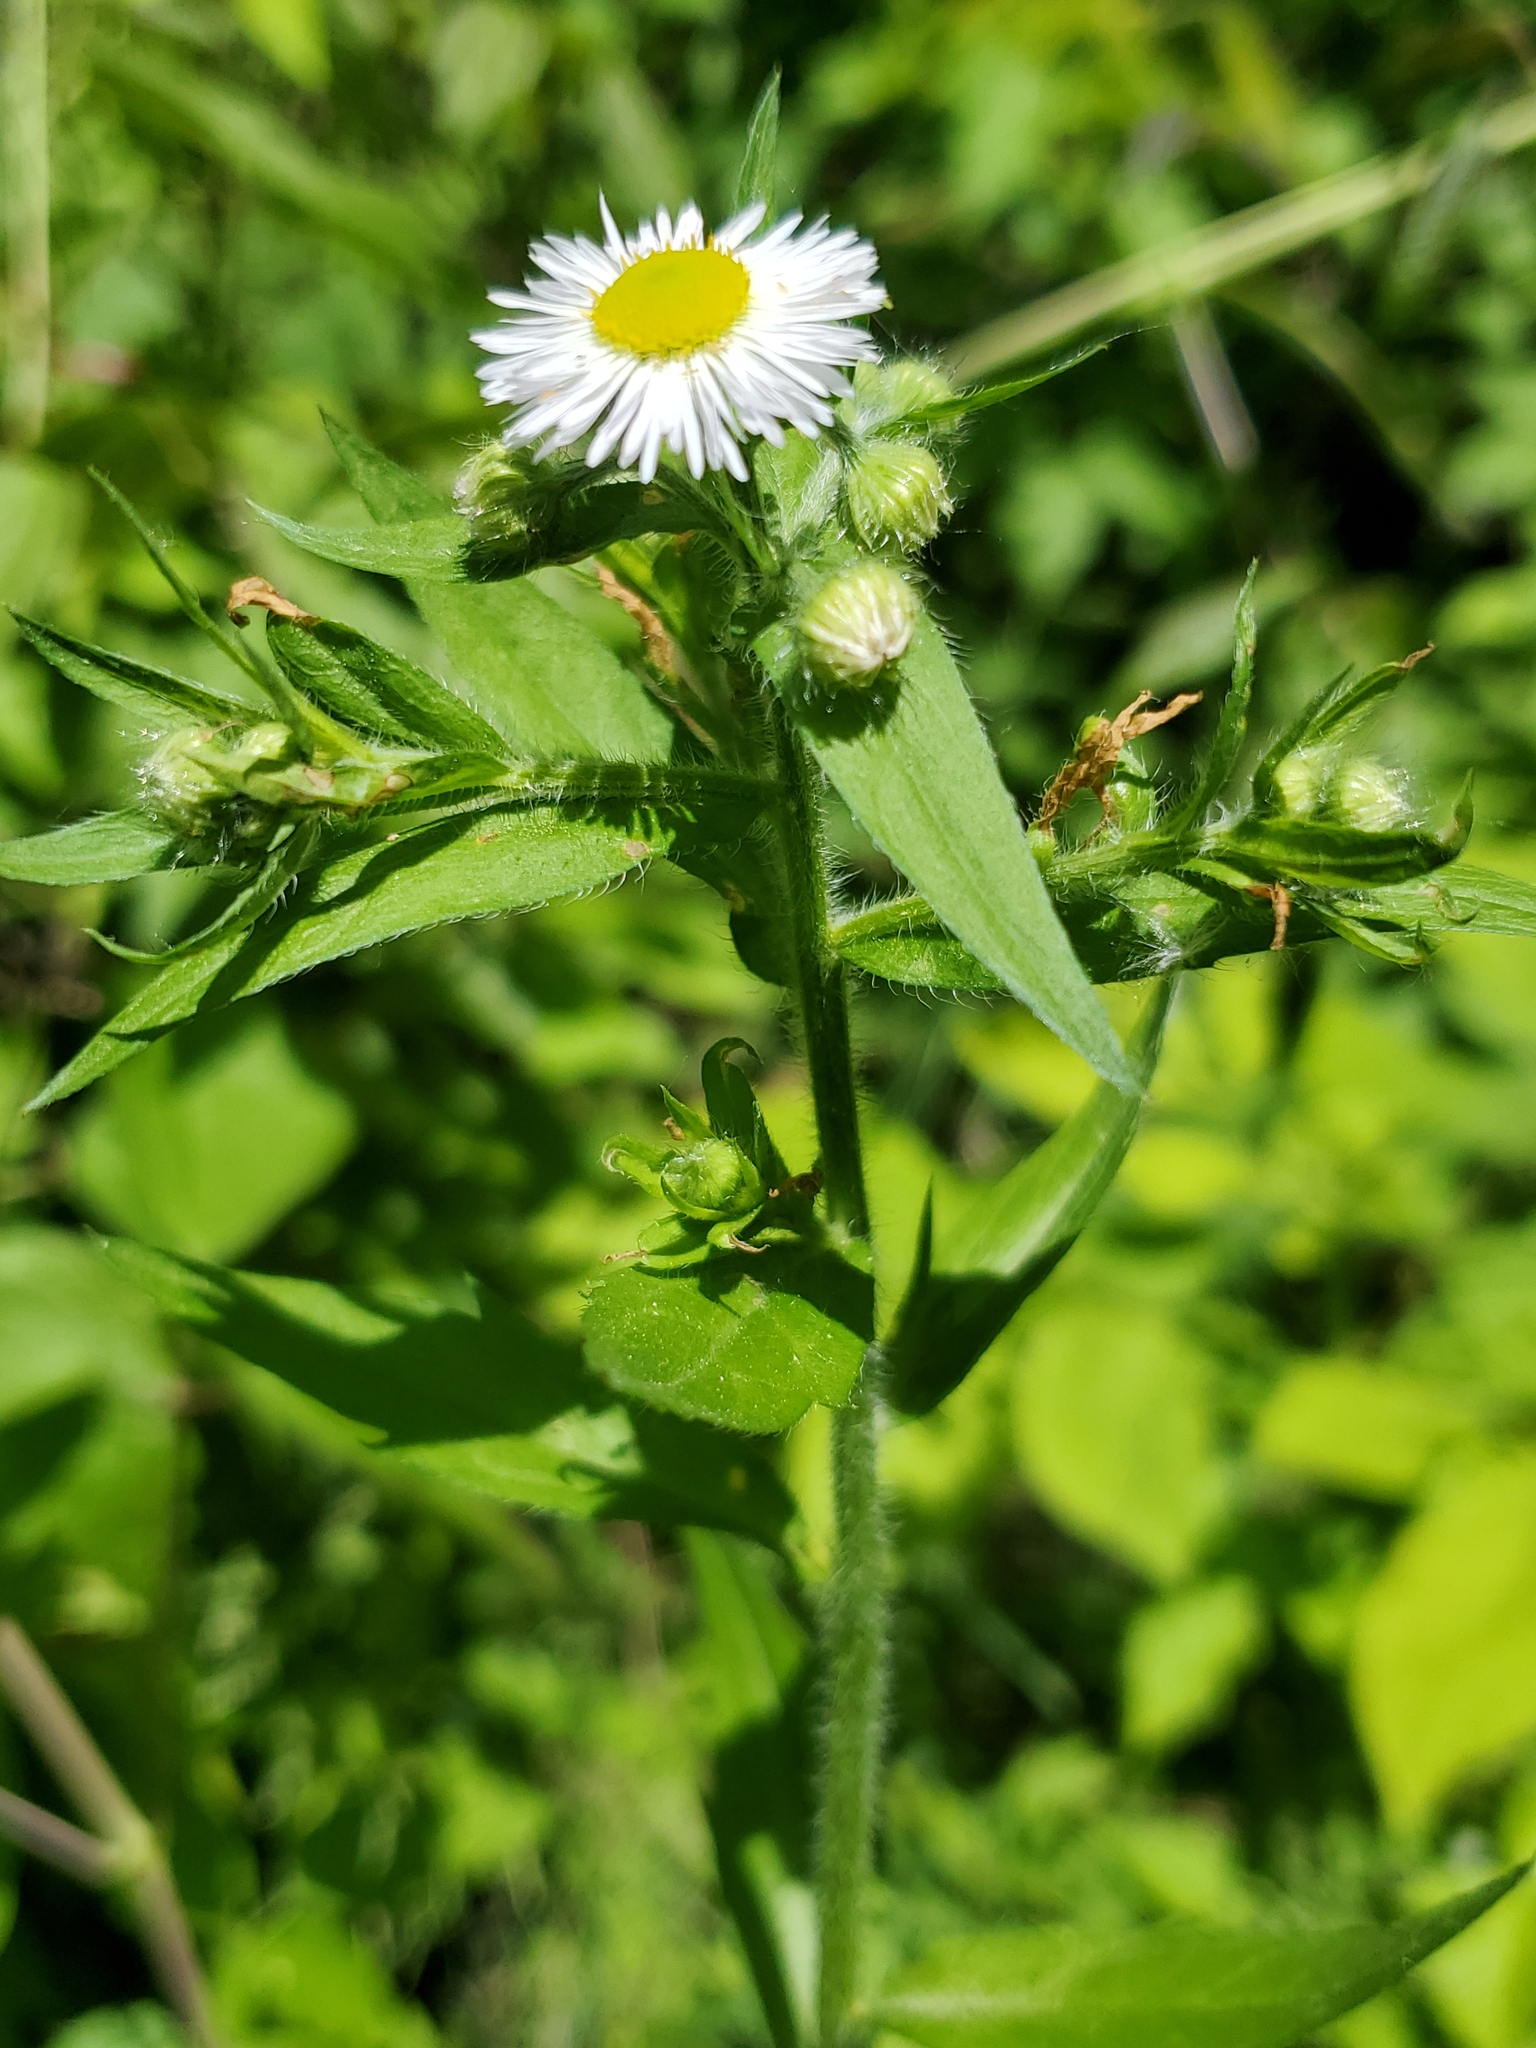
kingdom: Plantae
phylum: Tracheophyta
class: Magnoliopsida
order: Asterales
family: Asteraceae
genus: Erigeron
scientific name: Erigeron annuus
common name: Tall fleabane
